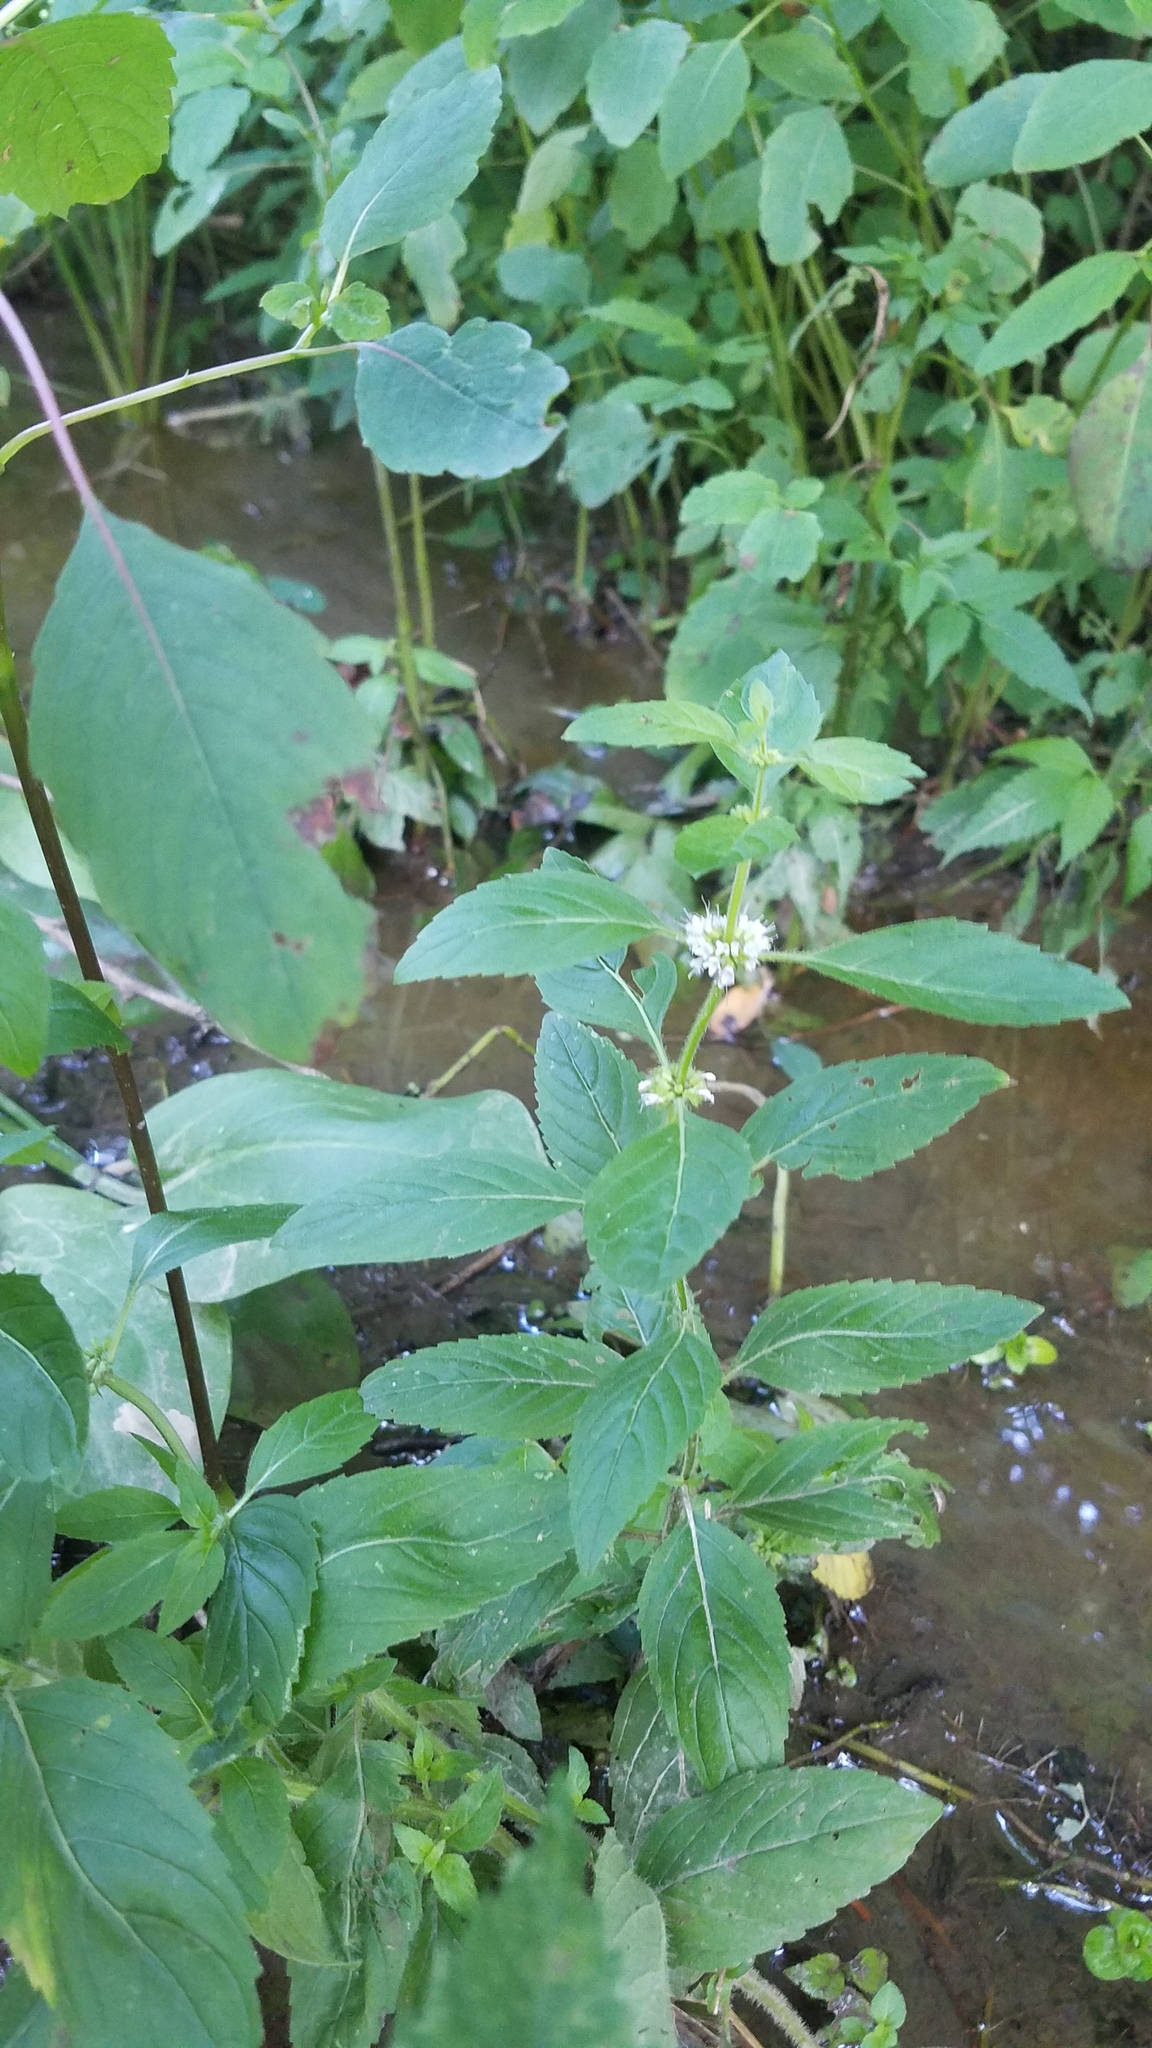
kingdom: Plantae
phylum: Tracheophyta
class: Magnoliopsida
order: Lamiales
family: Lamiaceae
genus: Mentha
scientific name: Mentha canadensis
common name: American corn mint
